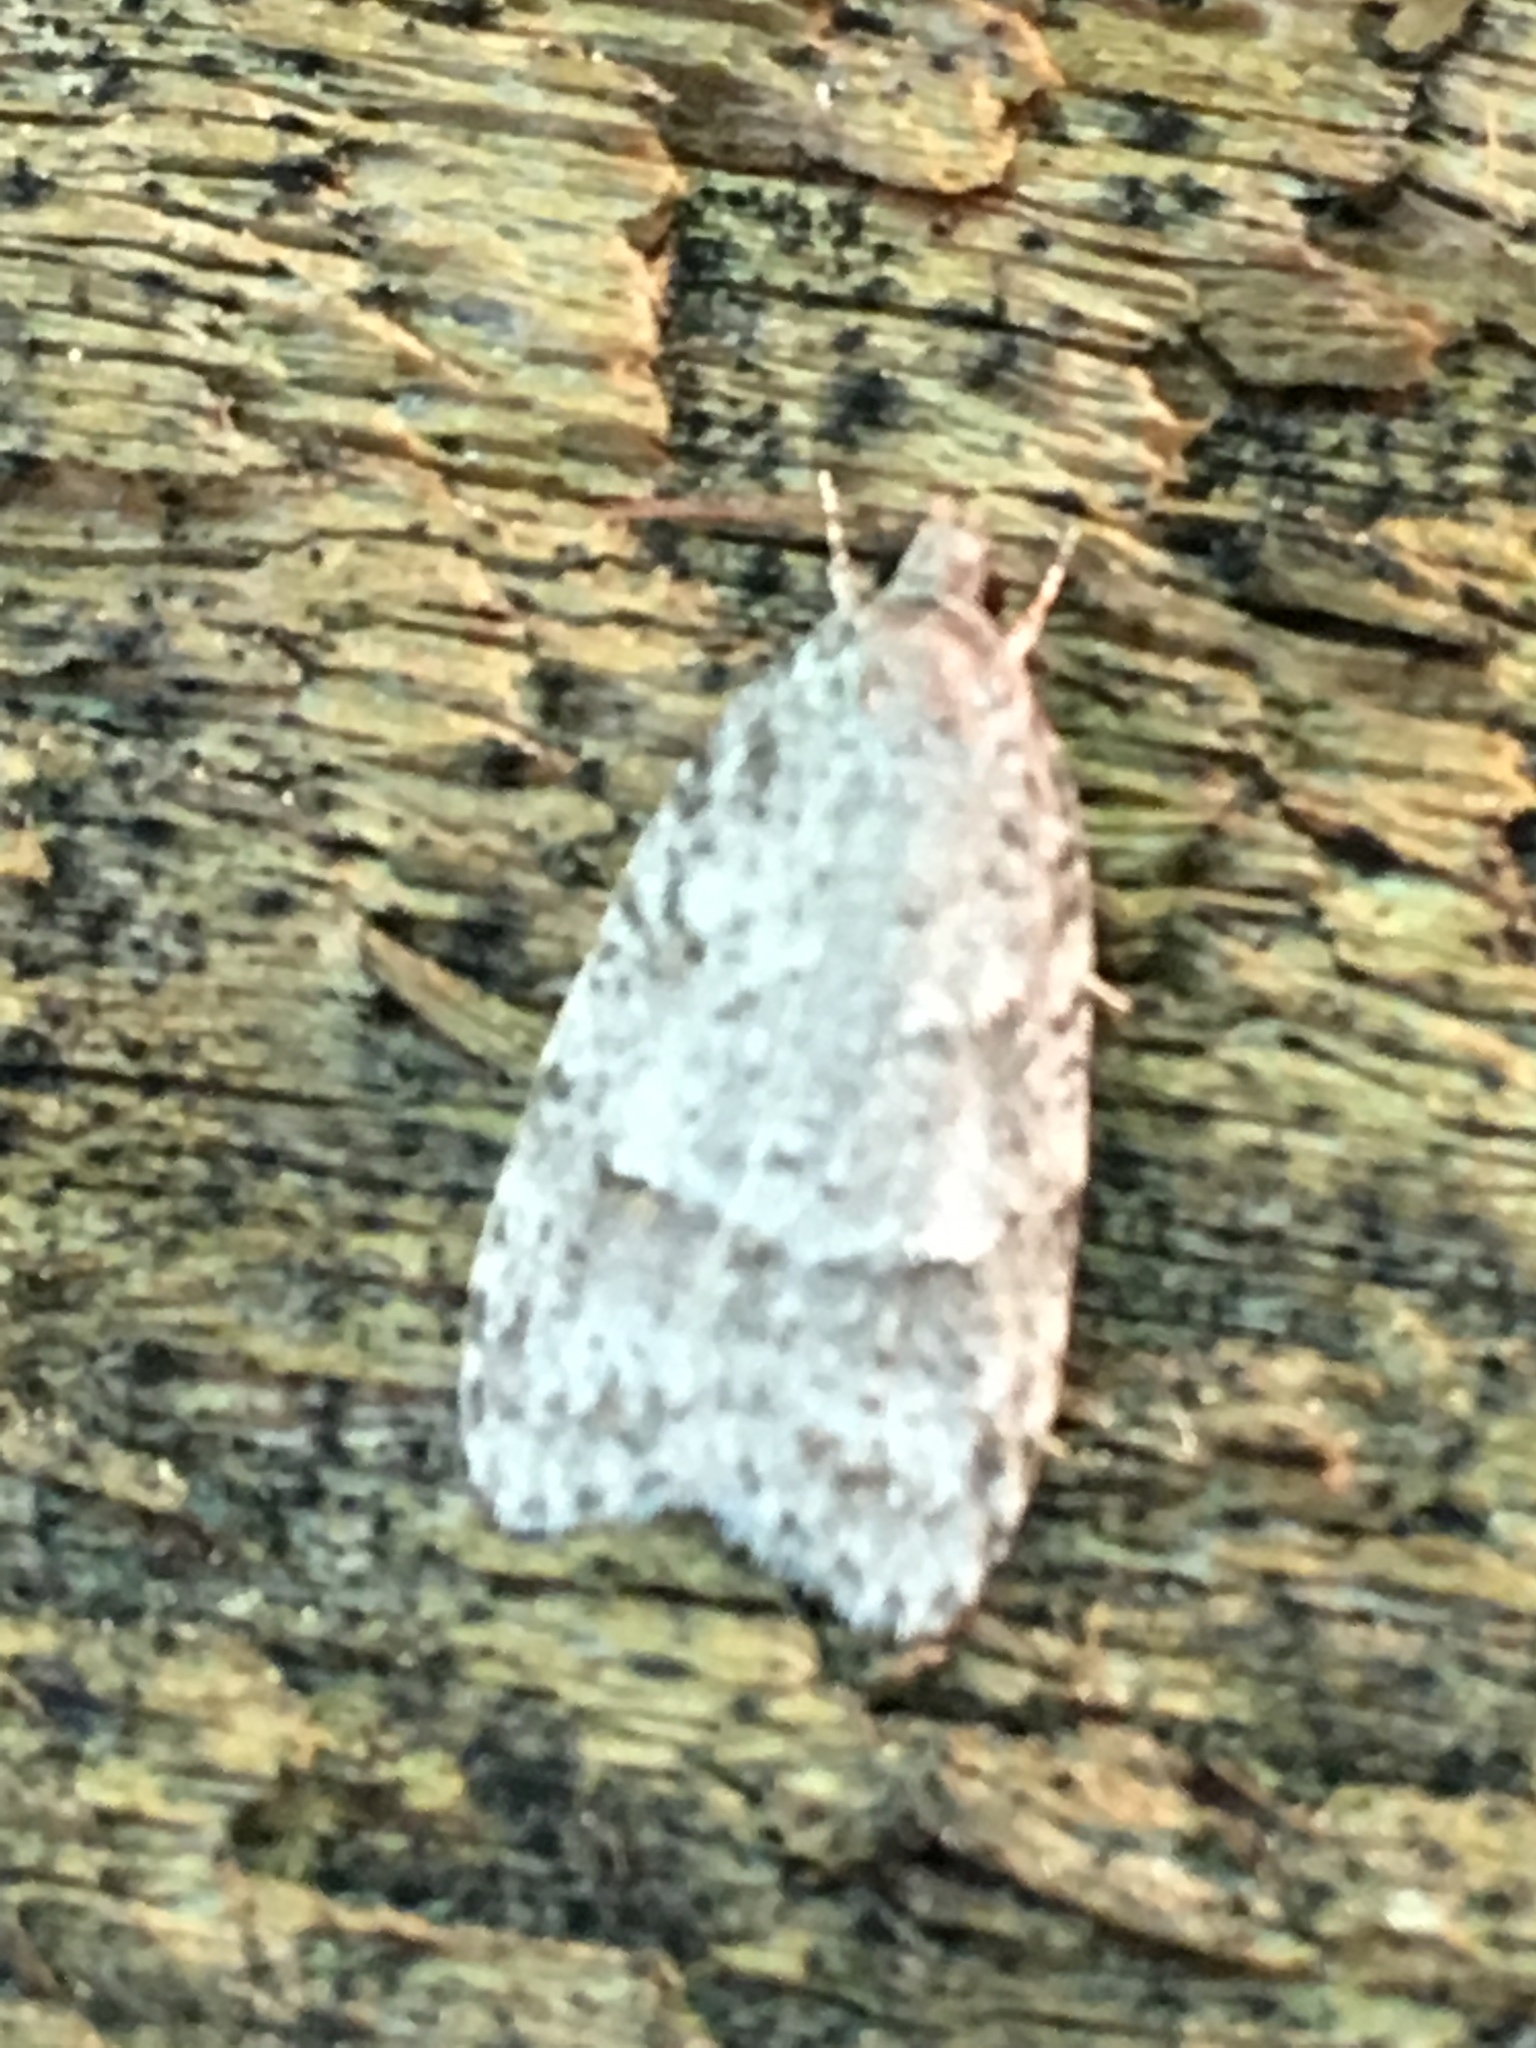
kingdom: Animalia
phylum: Arthropoda
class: Insecta
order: Lepidoptera
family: Depressariidae
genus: Bibarrambla
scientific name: Bibarrambla allenella
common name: Bog bibarrambla moth
